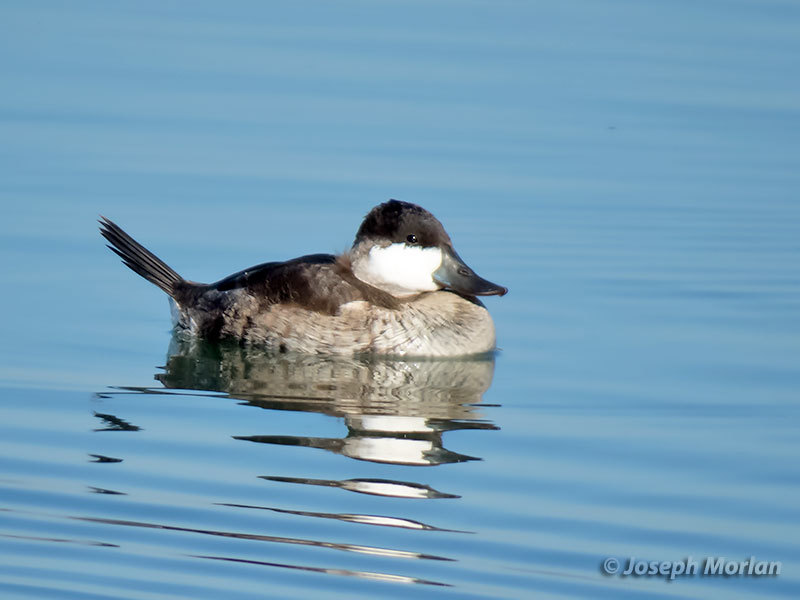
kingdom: Animalia
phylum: Chordata
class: Aves
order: Anseriformes
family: Anatidae
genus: Oxyura
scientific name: Oxyura jamaicensis
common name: Ruddy duck
